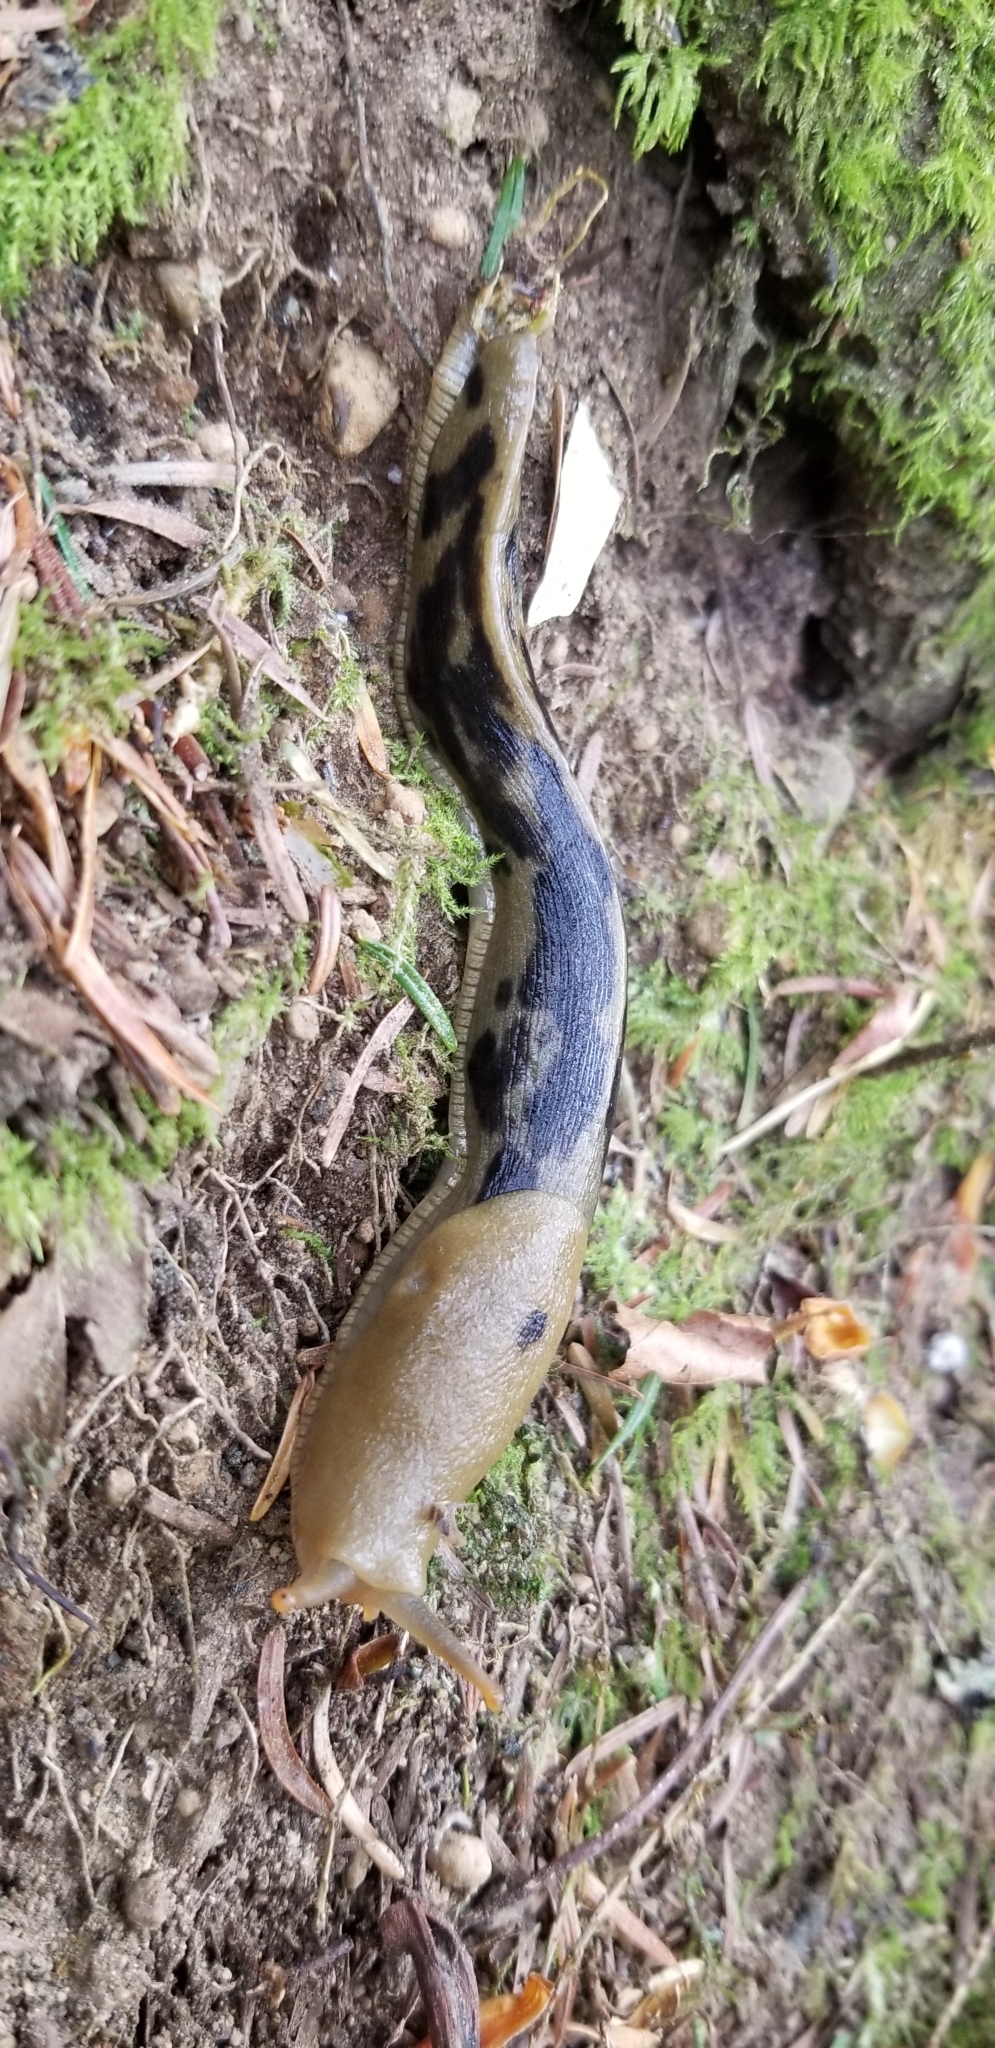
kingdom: Animalia
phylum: Mollusca
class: Gastropoda
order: Stylommatophora
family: Ariolimacidae
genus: Ariolimax
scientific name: Ariolimax columbianus
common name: Pacific banana slug
